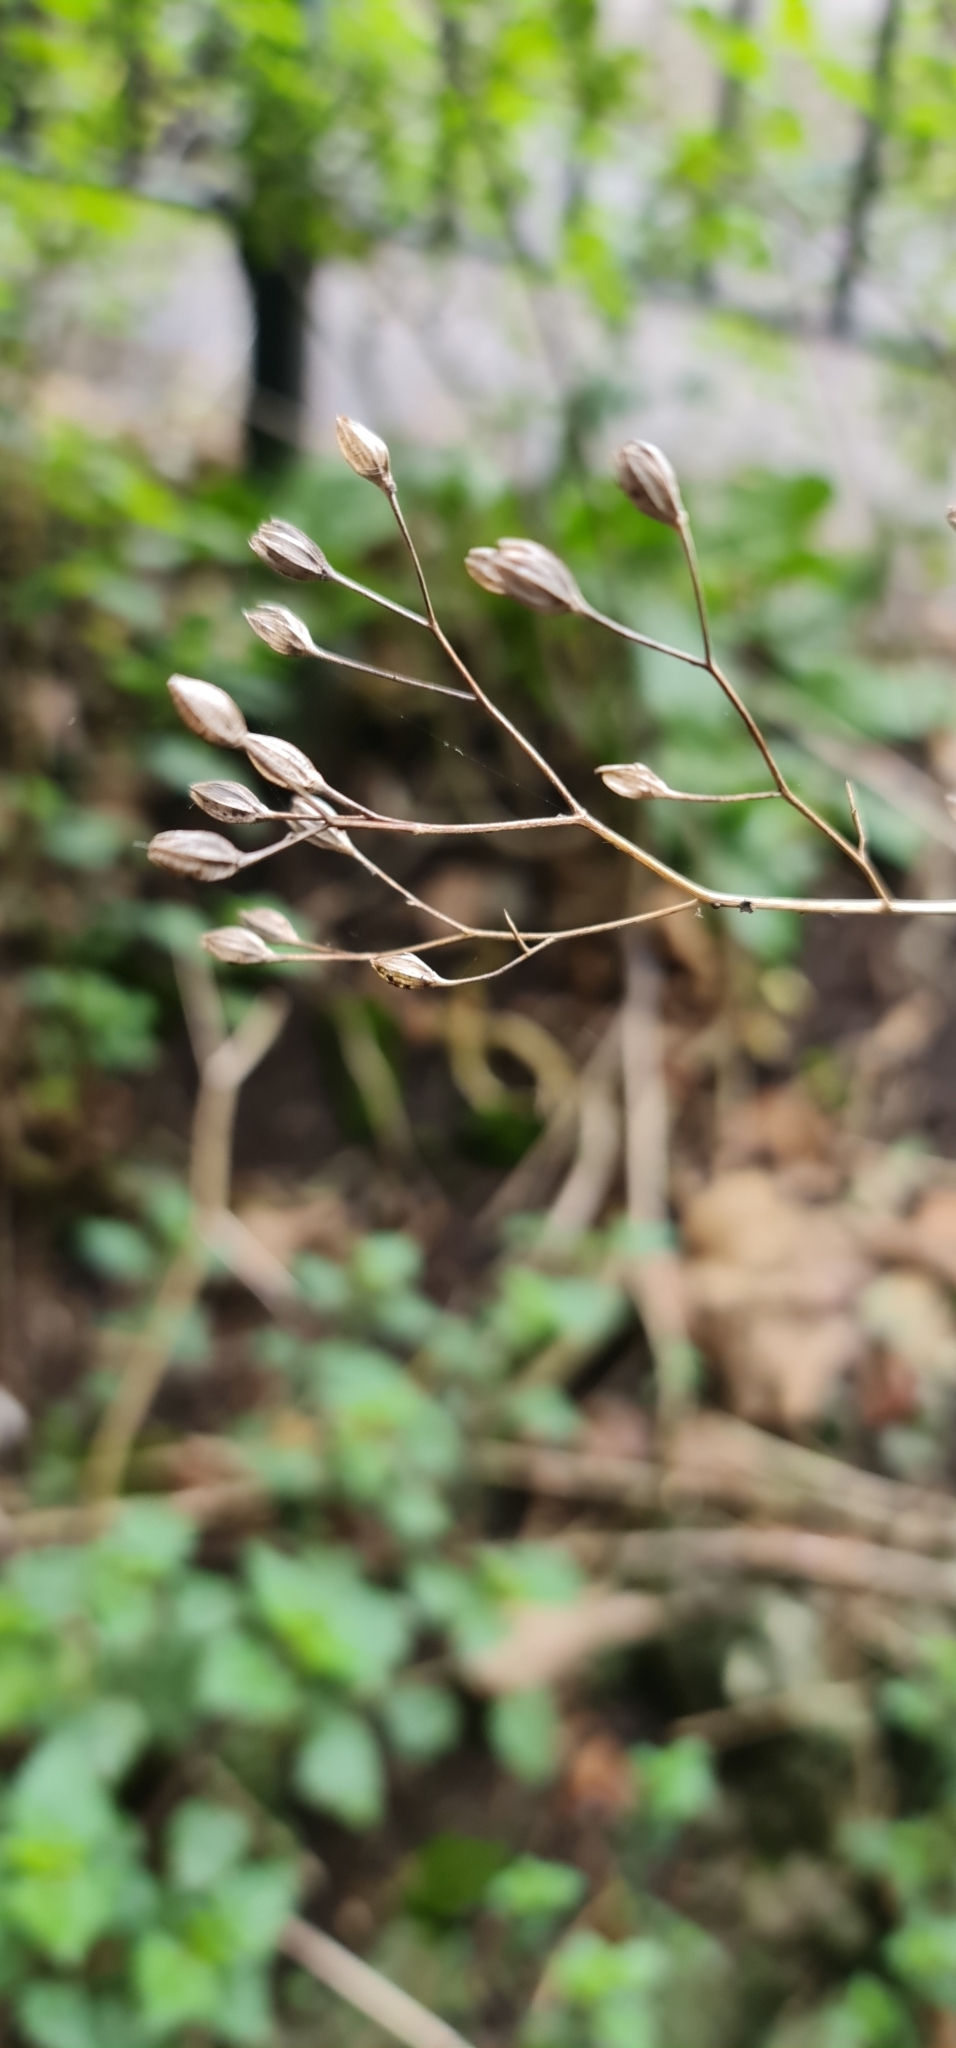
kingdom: Plantae
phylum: Tracheophyta
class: Magnoliopsida
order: Asterales
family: Asteraceae
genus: Lapsana
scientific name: Lapsana communis
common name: Nipplewort
